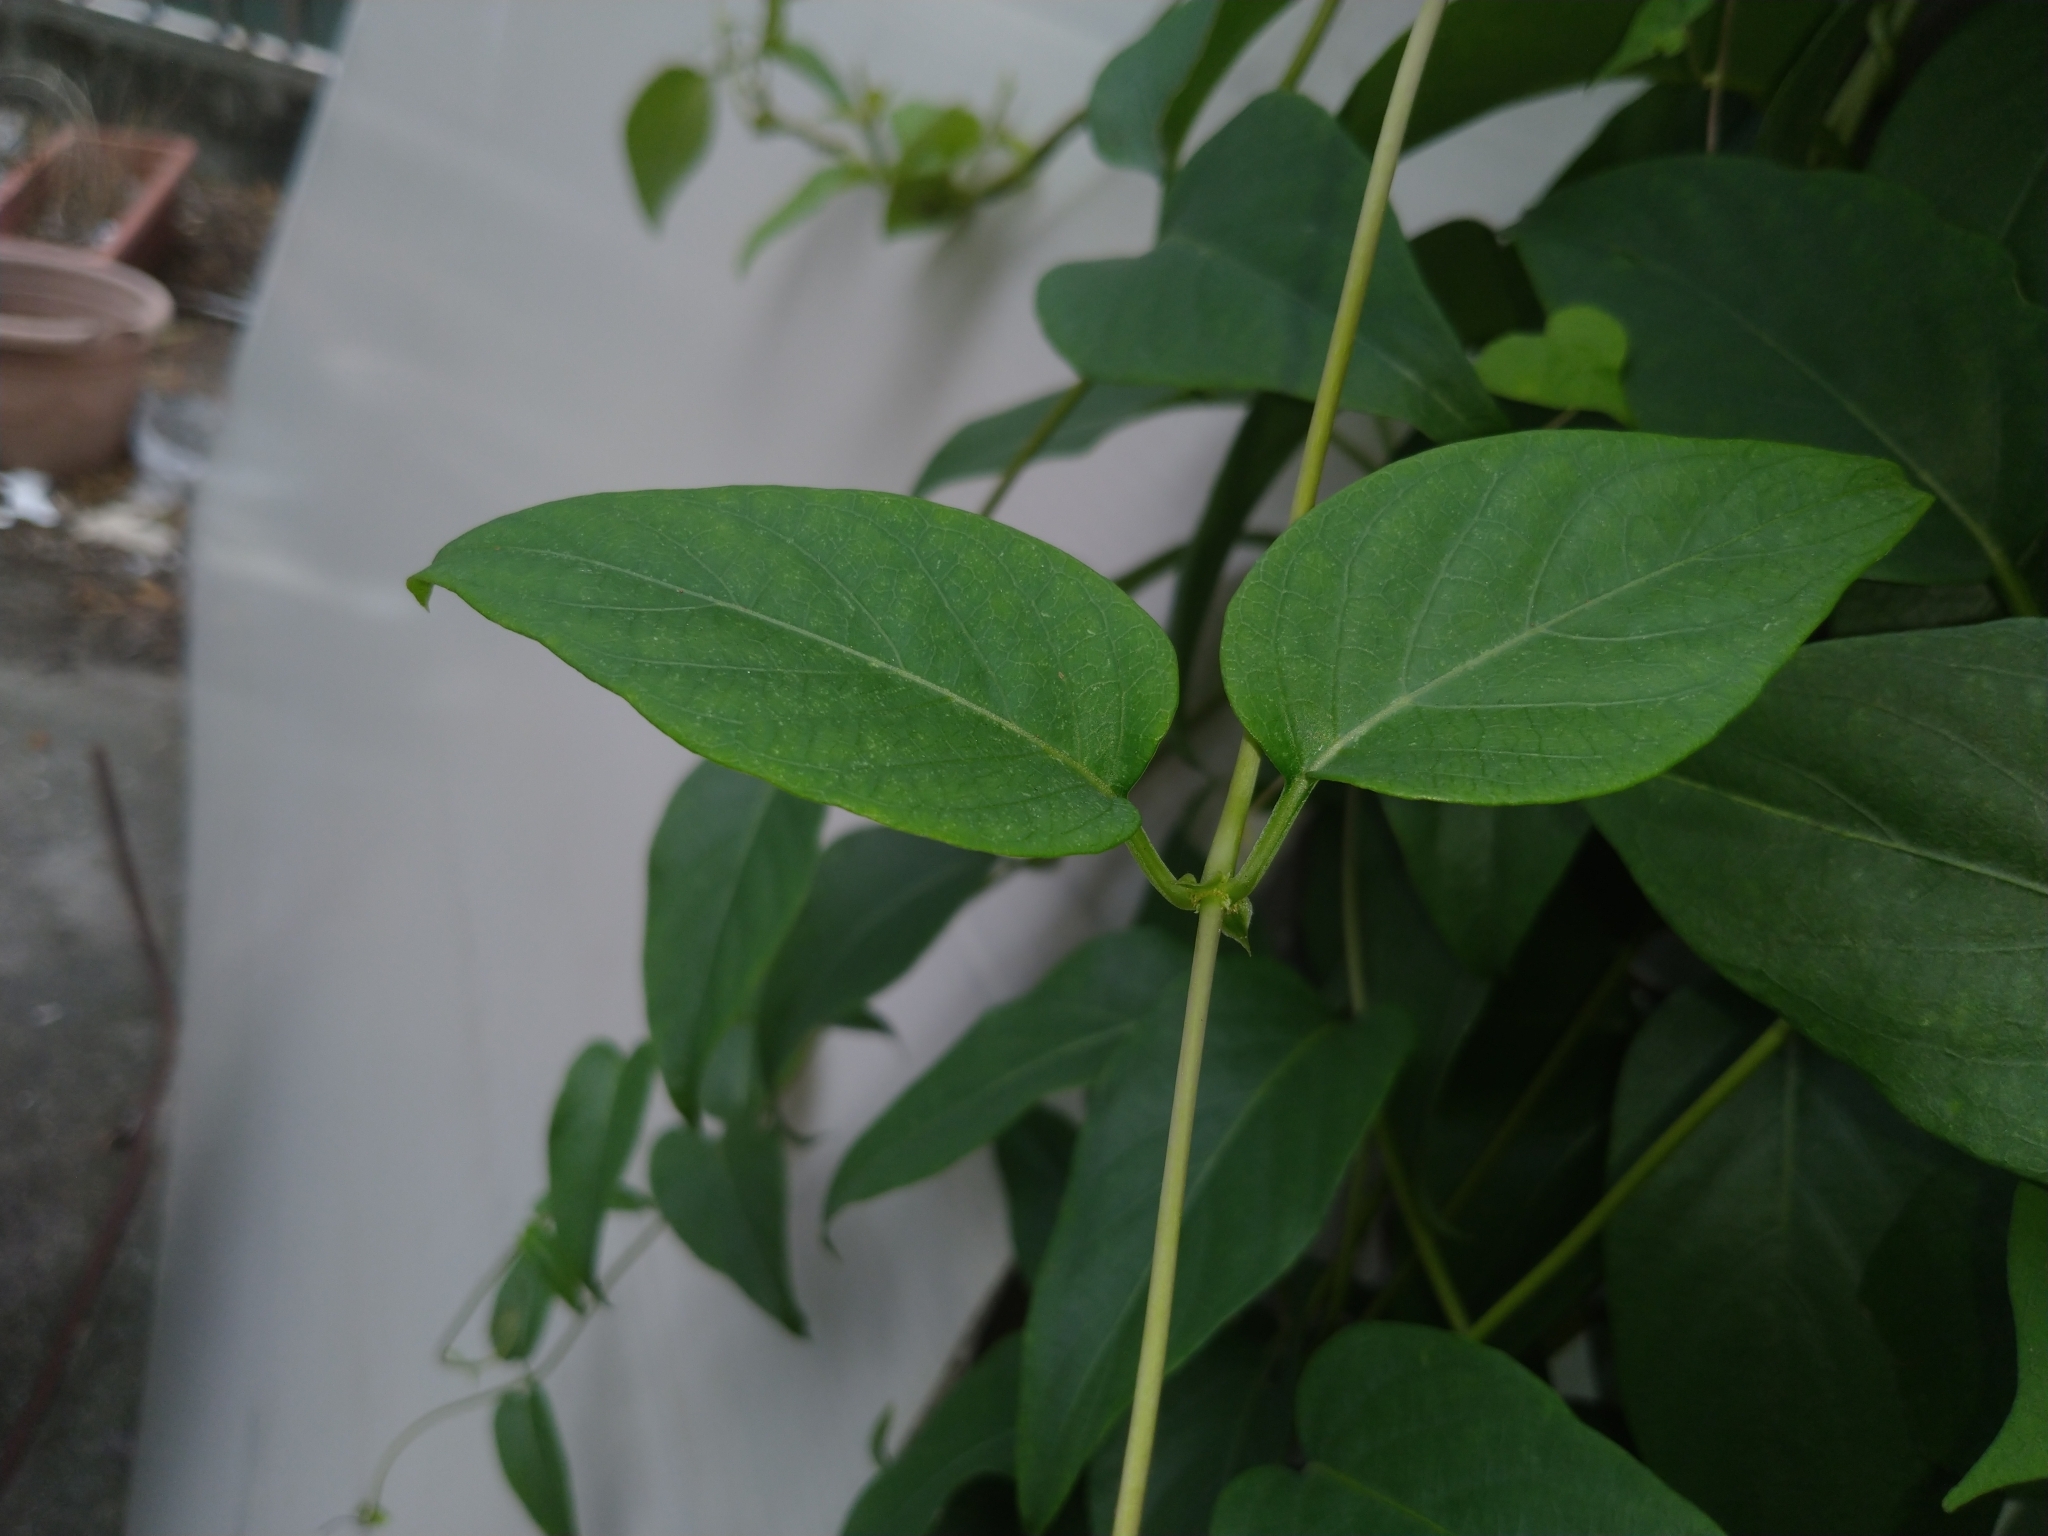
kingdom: Plantae
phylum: Tracheophyta
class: Magnoliopsida
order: Gentianales
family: Rubiaceae
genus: Paederia
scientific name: Paederia foetida
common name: Stinkvine
